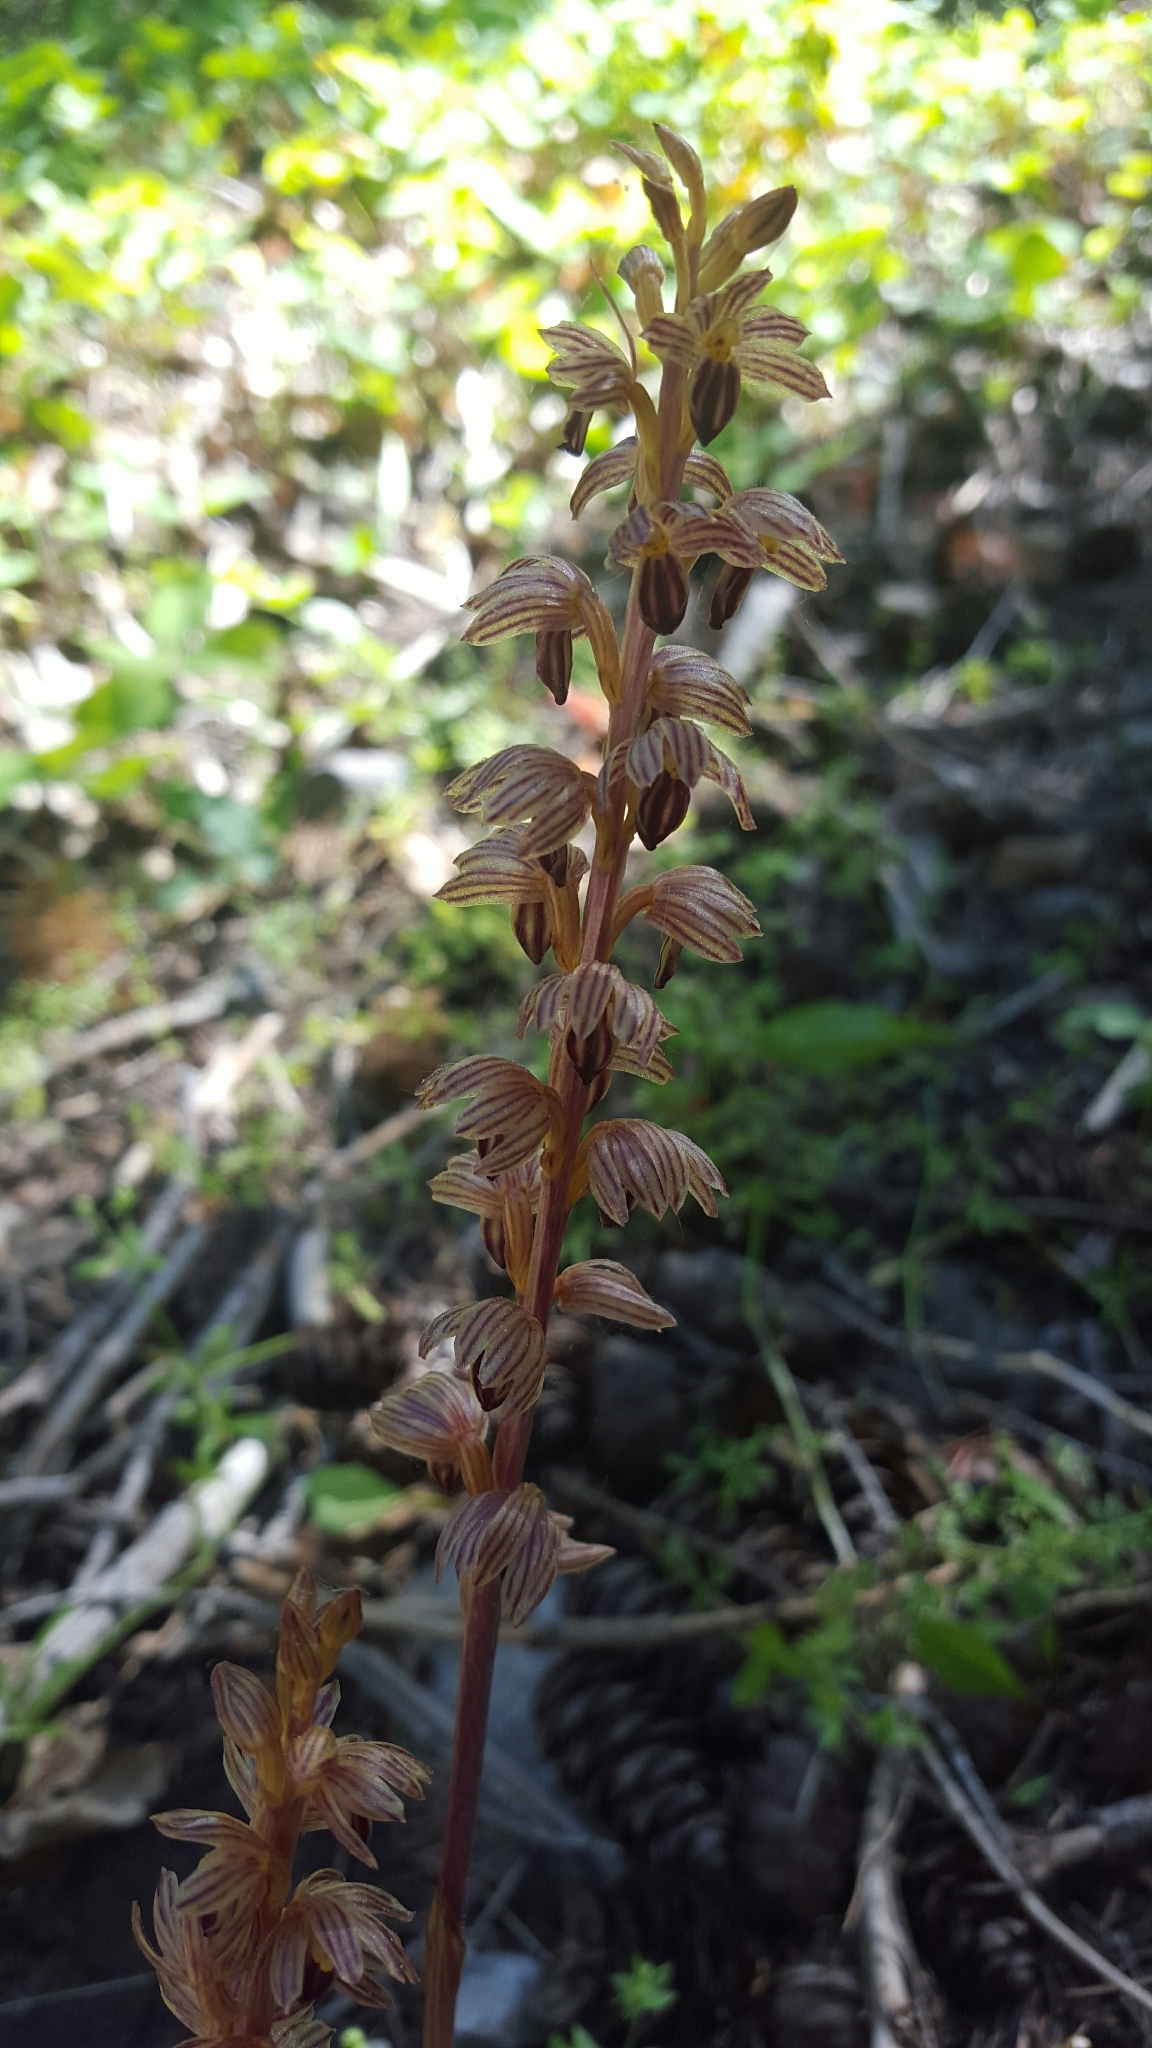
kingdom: Plantae
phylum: Tracheophyta
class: Liliopsida
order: Asparagales
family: Orchidaceae
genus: Corallorhiza
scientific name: Corallorhiza striata
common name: Hooded coralroot
